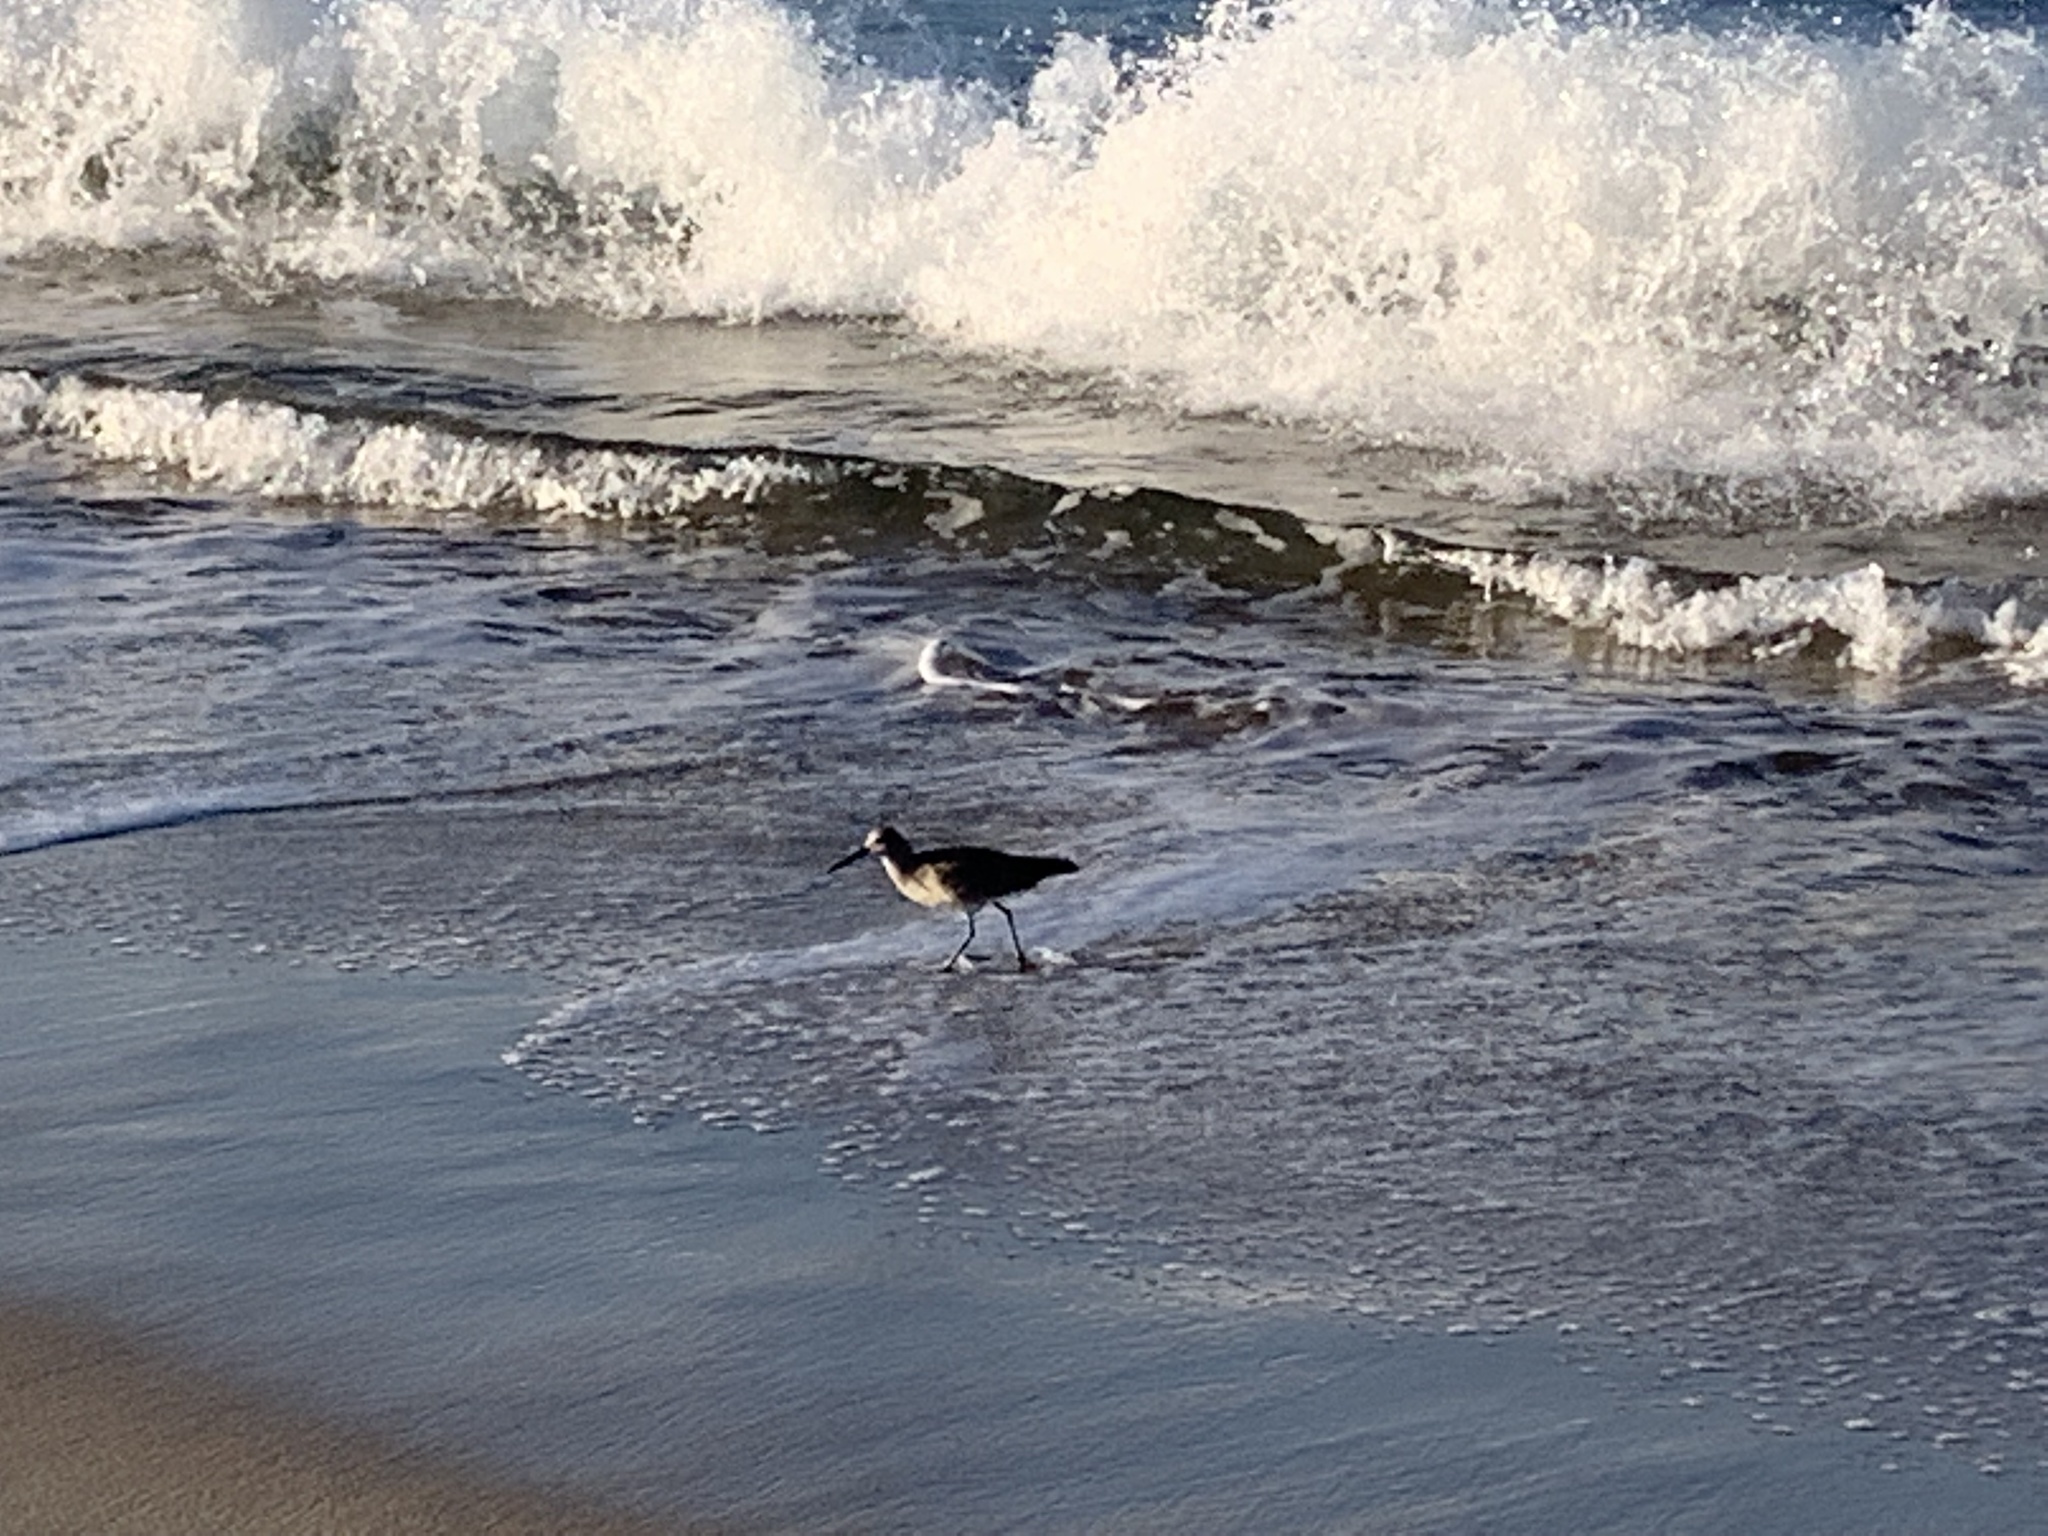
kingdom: Animalia
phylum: Chordata
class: Aves
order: Charadriiformes
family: Scolopacidae
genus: Tringa
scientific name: Tringa semipalmata
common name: Willet
